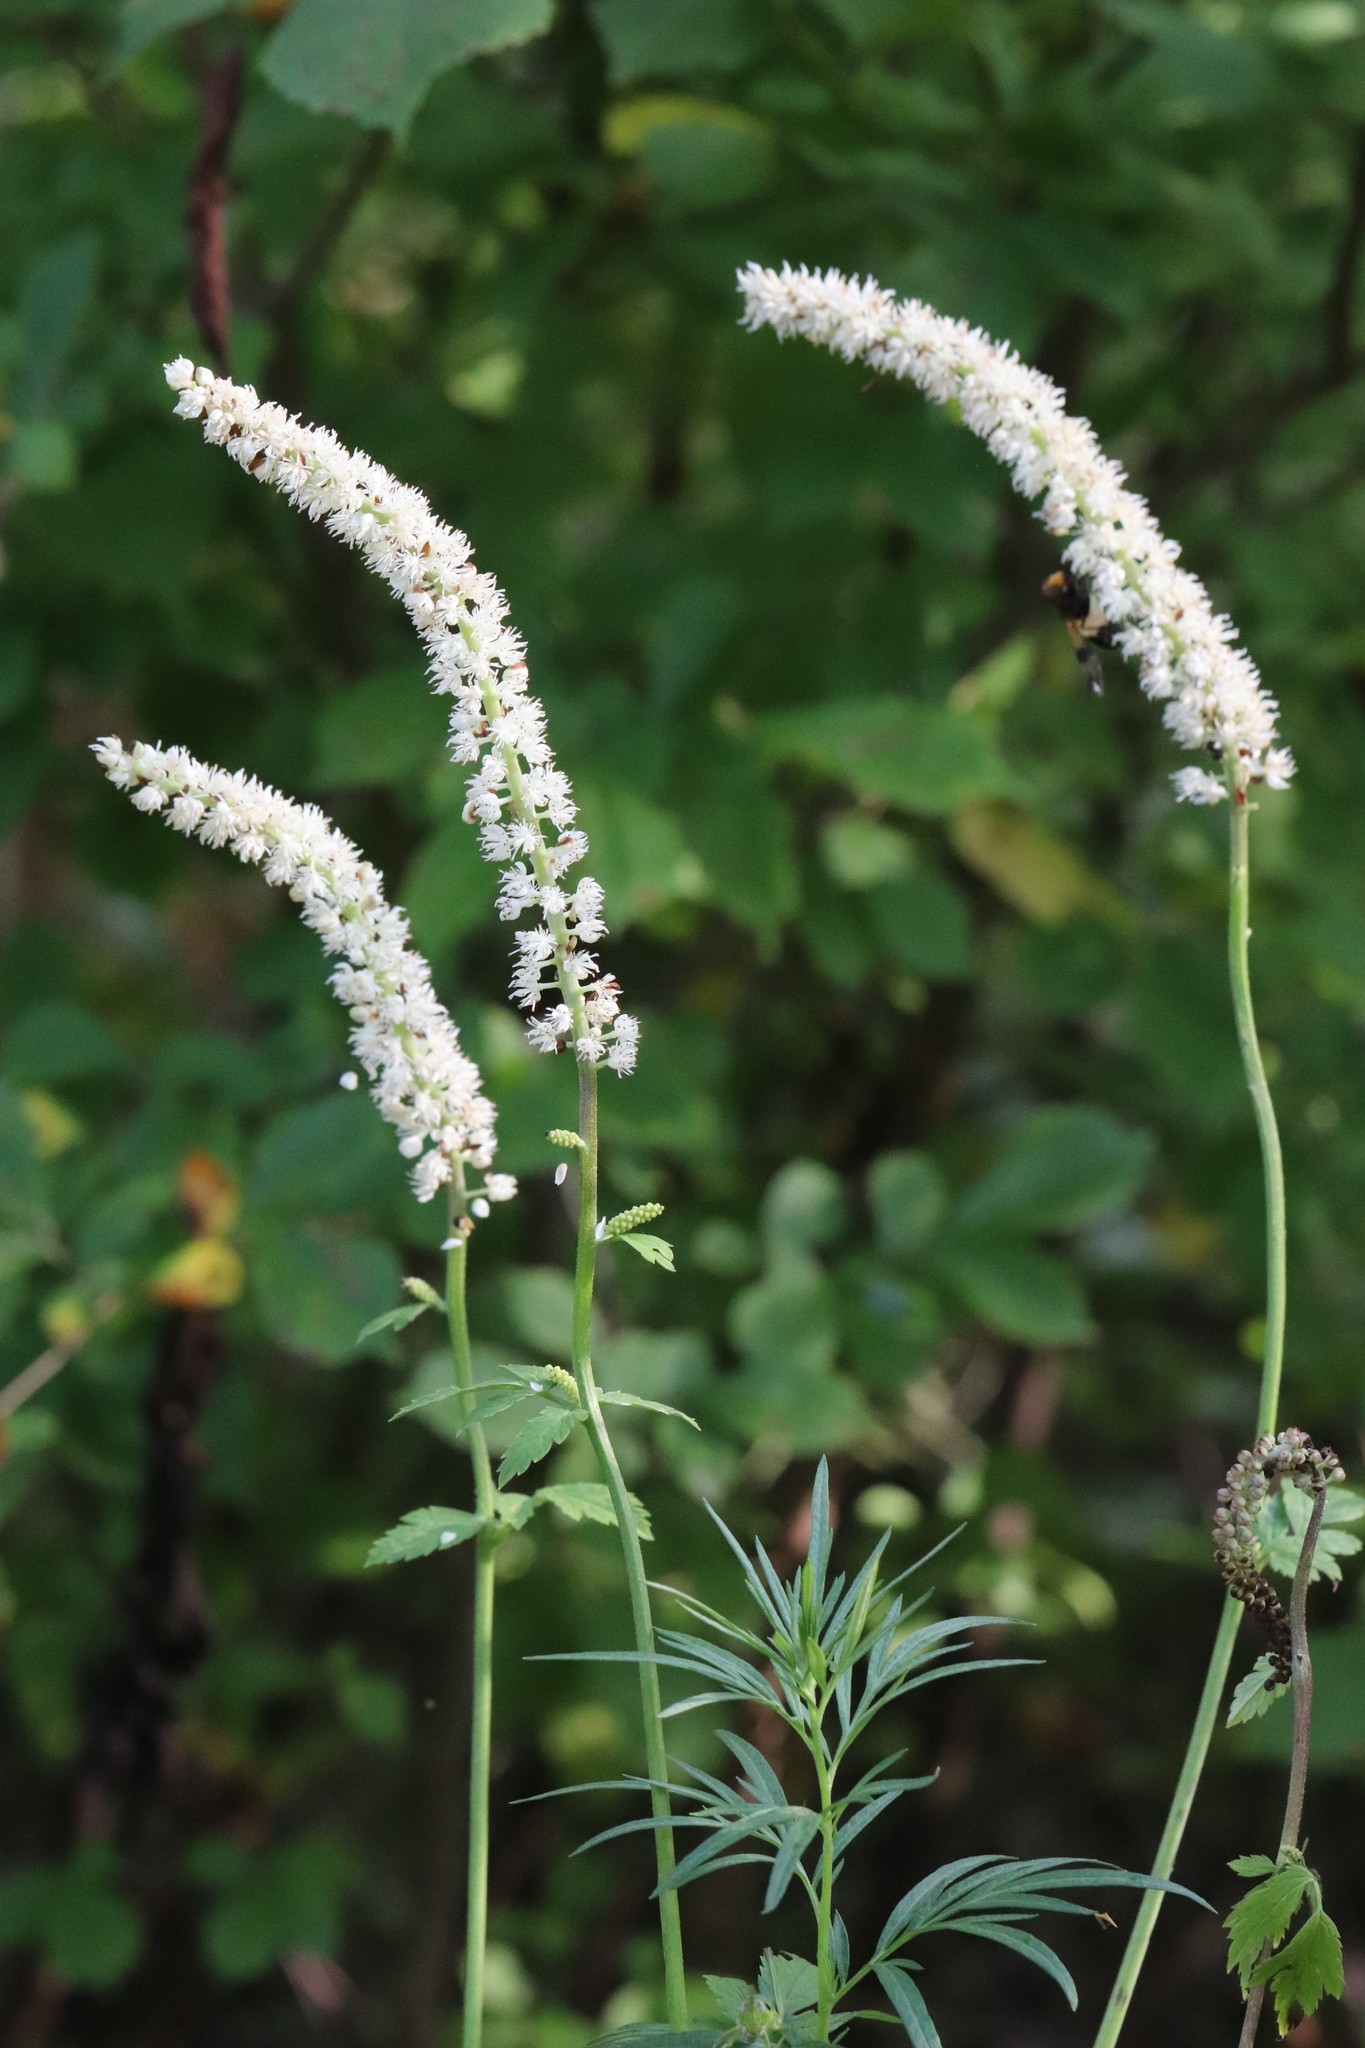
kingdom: Plantae
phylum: Tracheophyta
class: Magnoliopsida
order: Ranunculales
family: Ranunculaceae
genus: Actaea
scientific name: Actaea simplex
